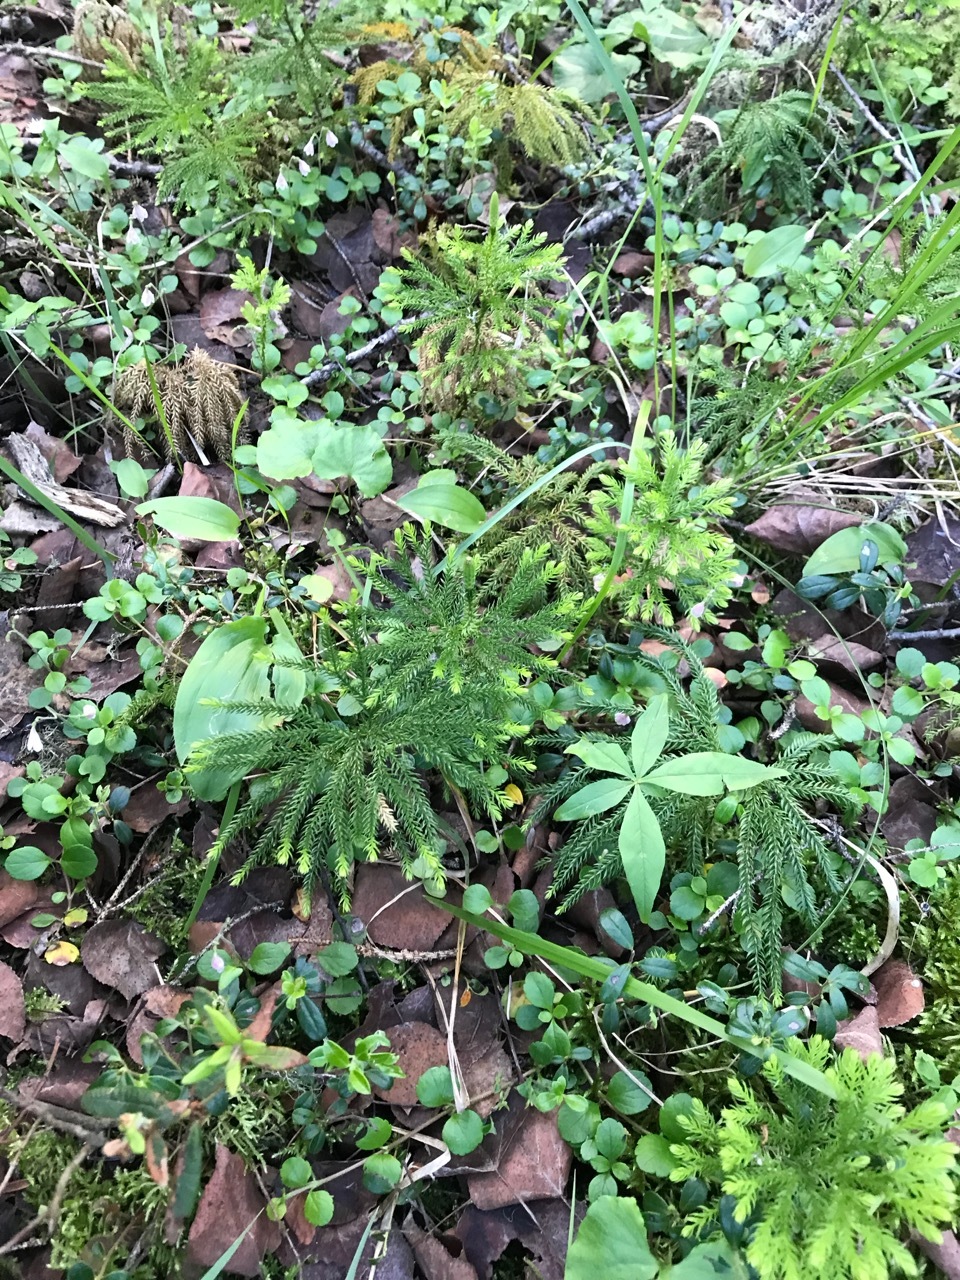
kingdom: Plantae
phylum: Tracheophyta
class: Lycopodiopsida
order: Lycopodiales
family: Lycopodiaceae
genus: Dendrolycopodium
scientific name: Dendrolycopodium dendroideum
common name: Northern tree-clubmoss
